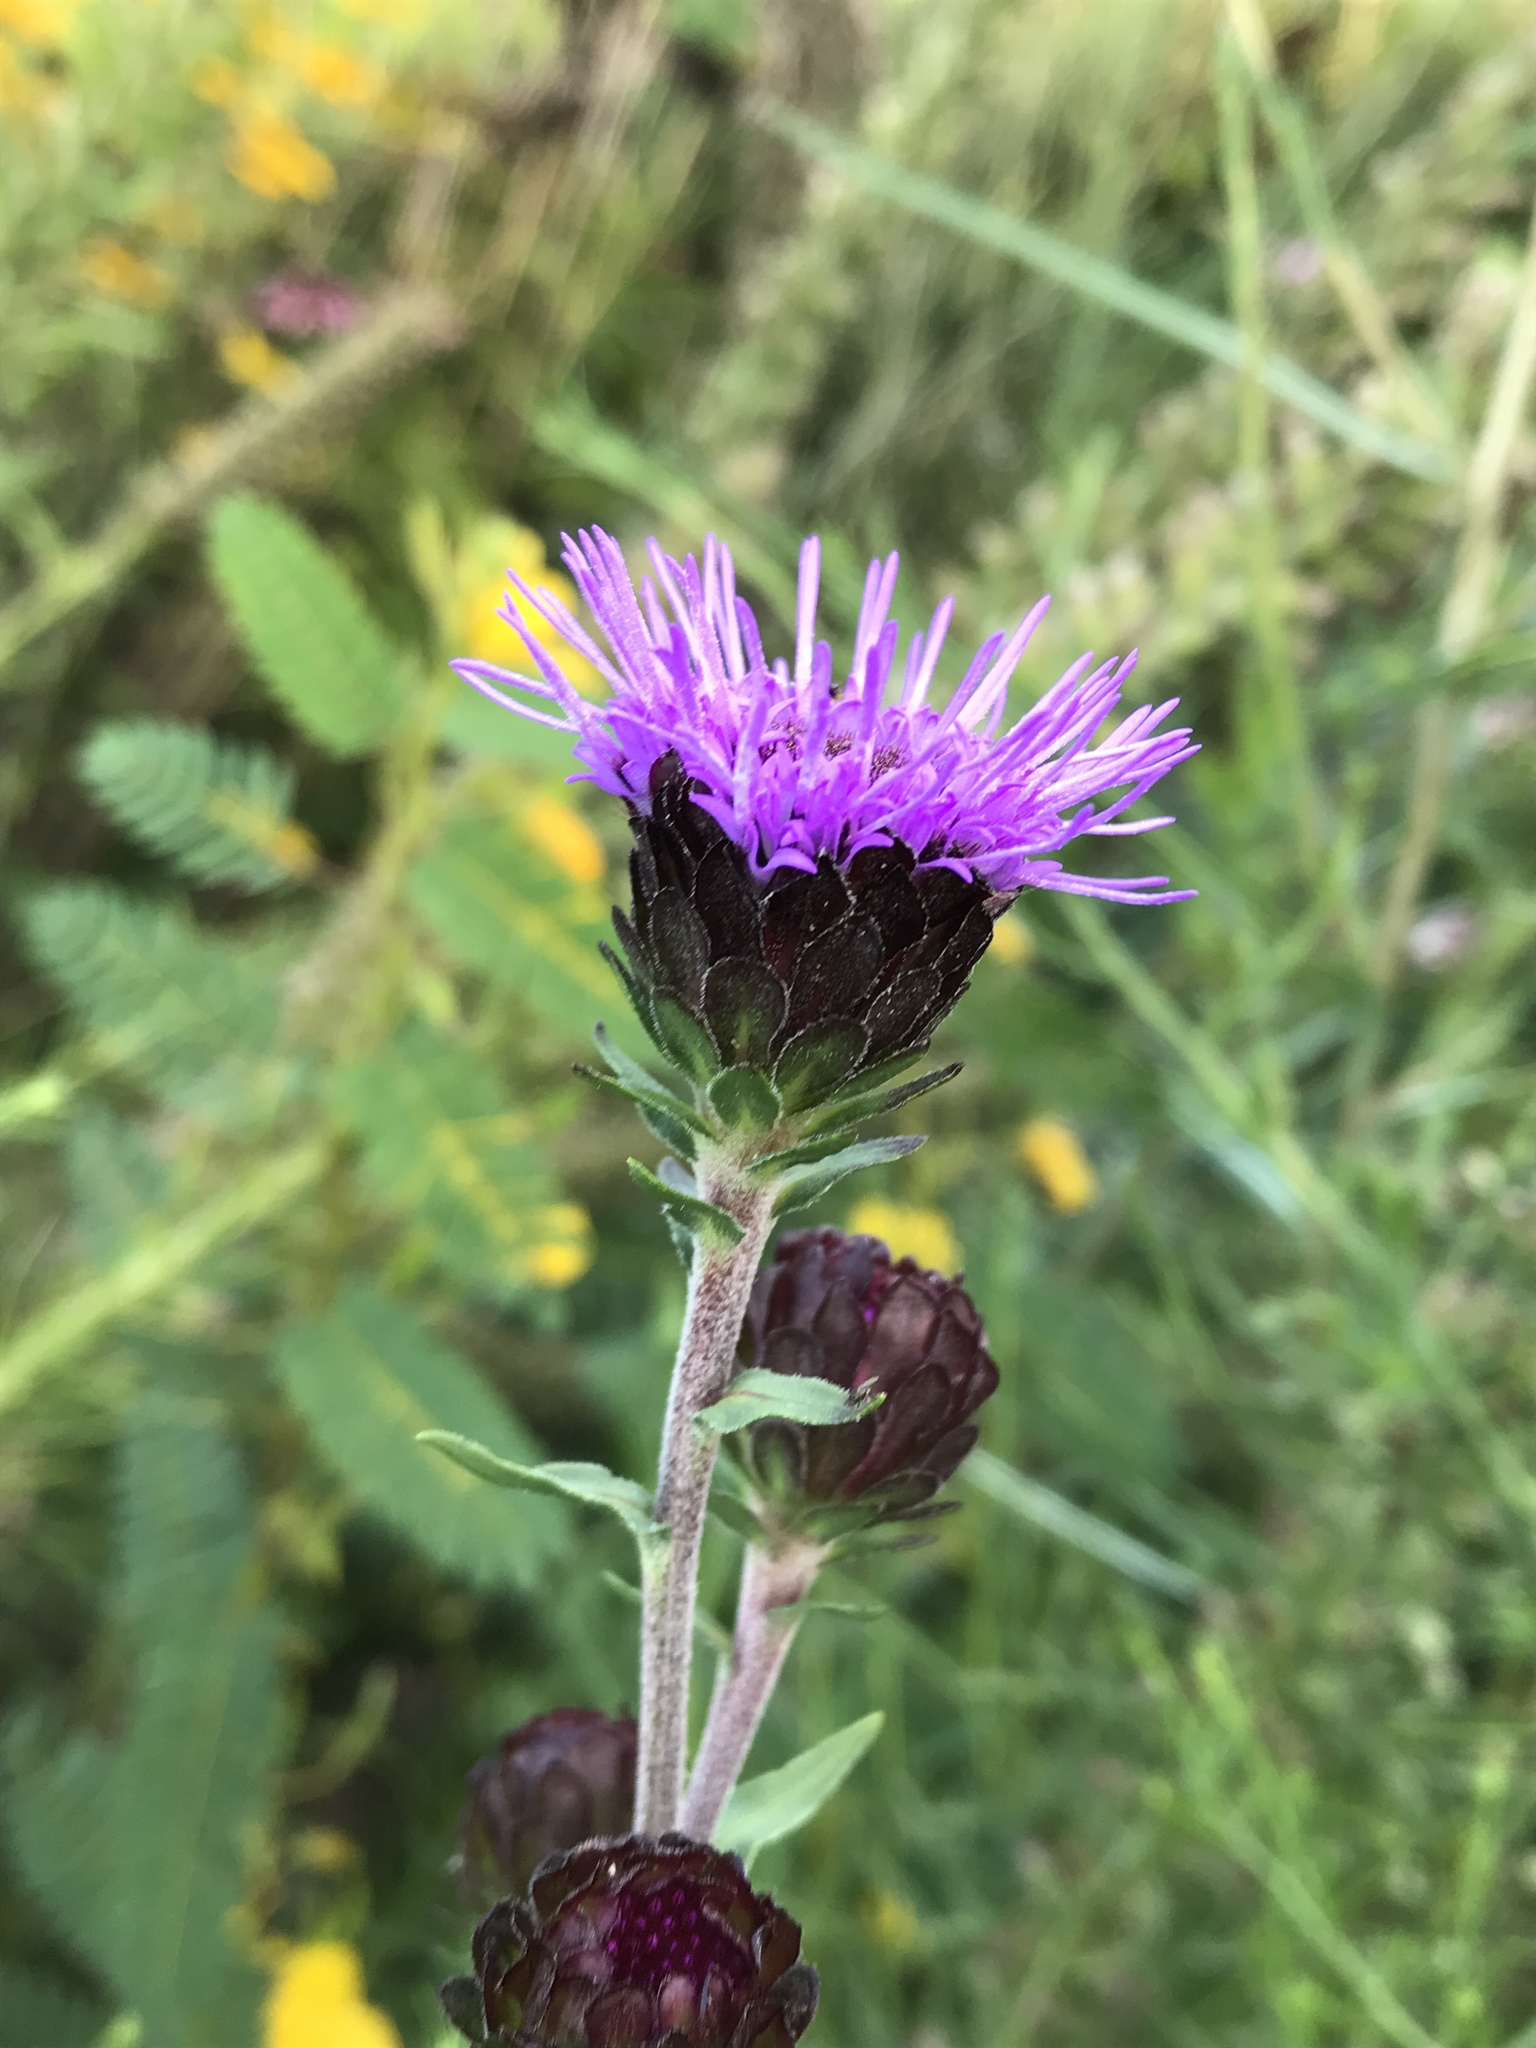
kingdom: Plantae
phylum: Tracheophyta
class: Magnoliopsida
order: Asterales
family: Asteraceae
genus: Liatris
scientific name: Liatris scariosa
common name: Northern gayfeather
